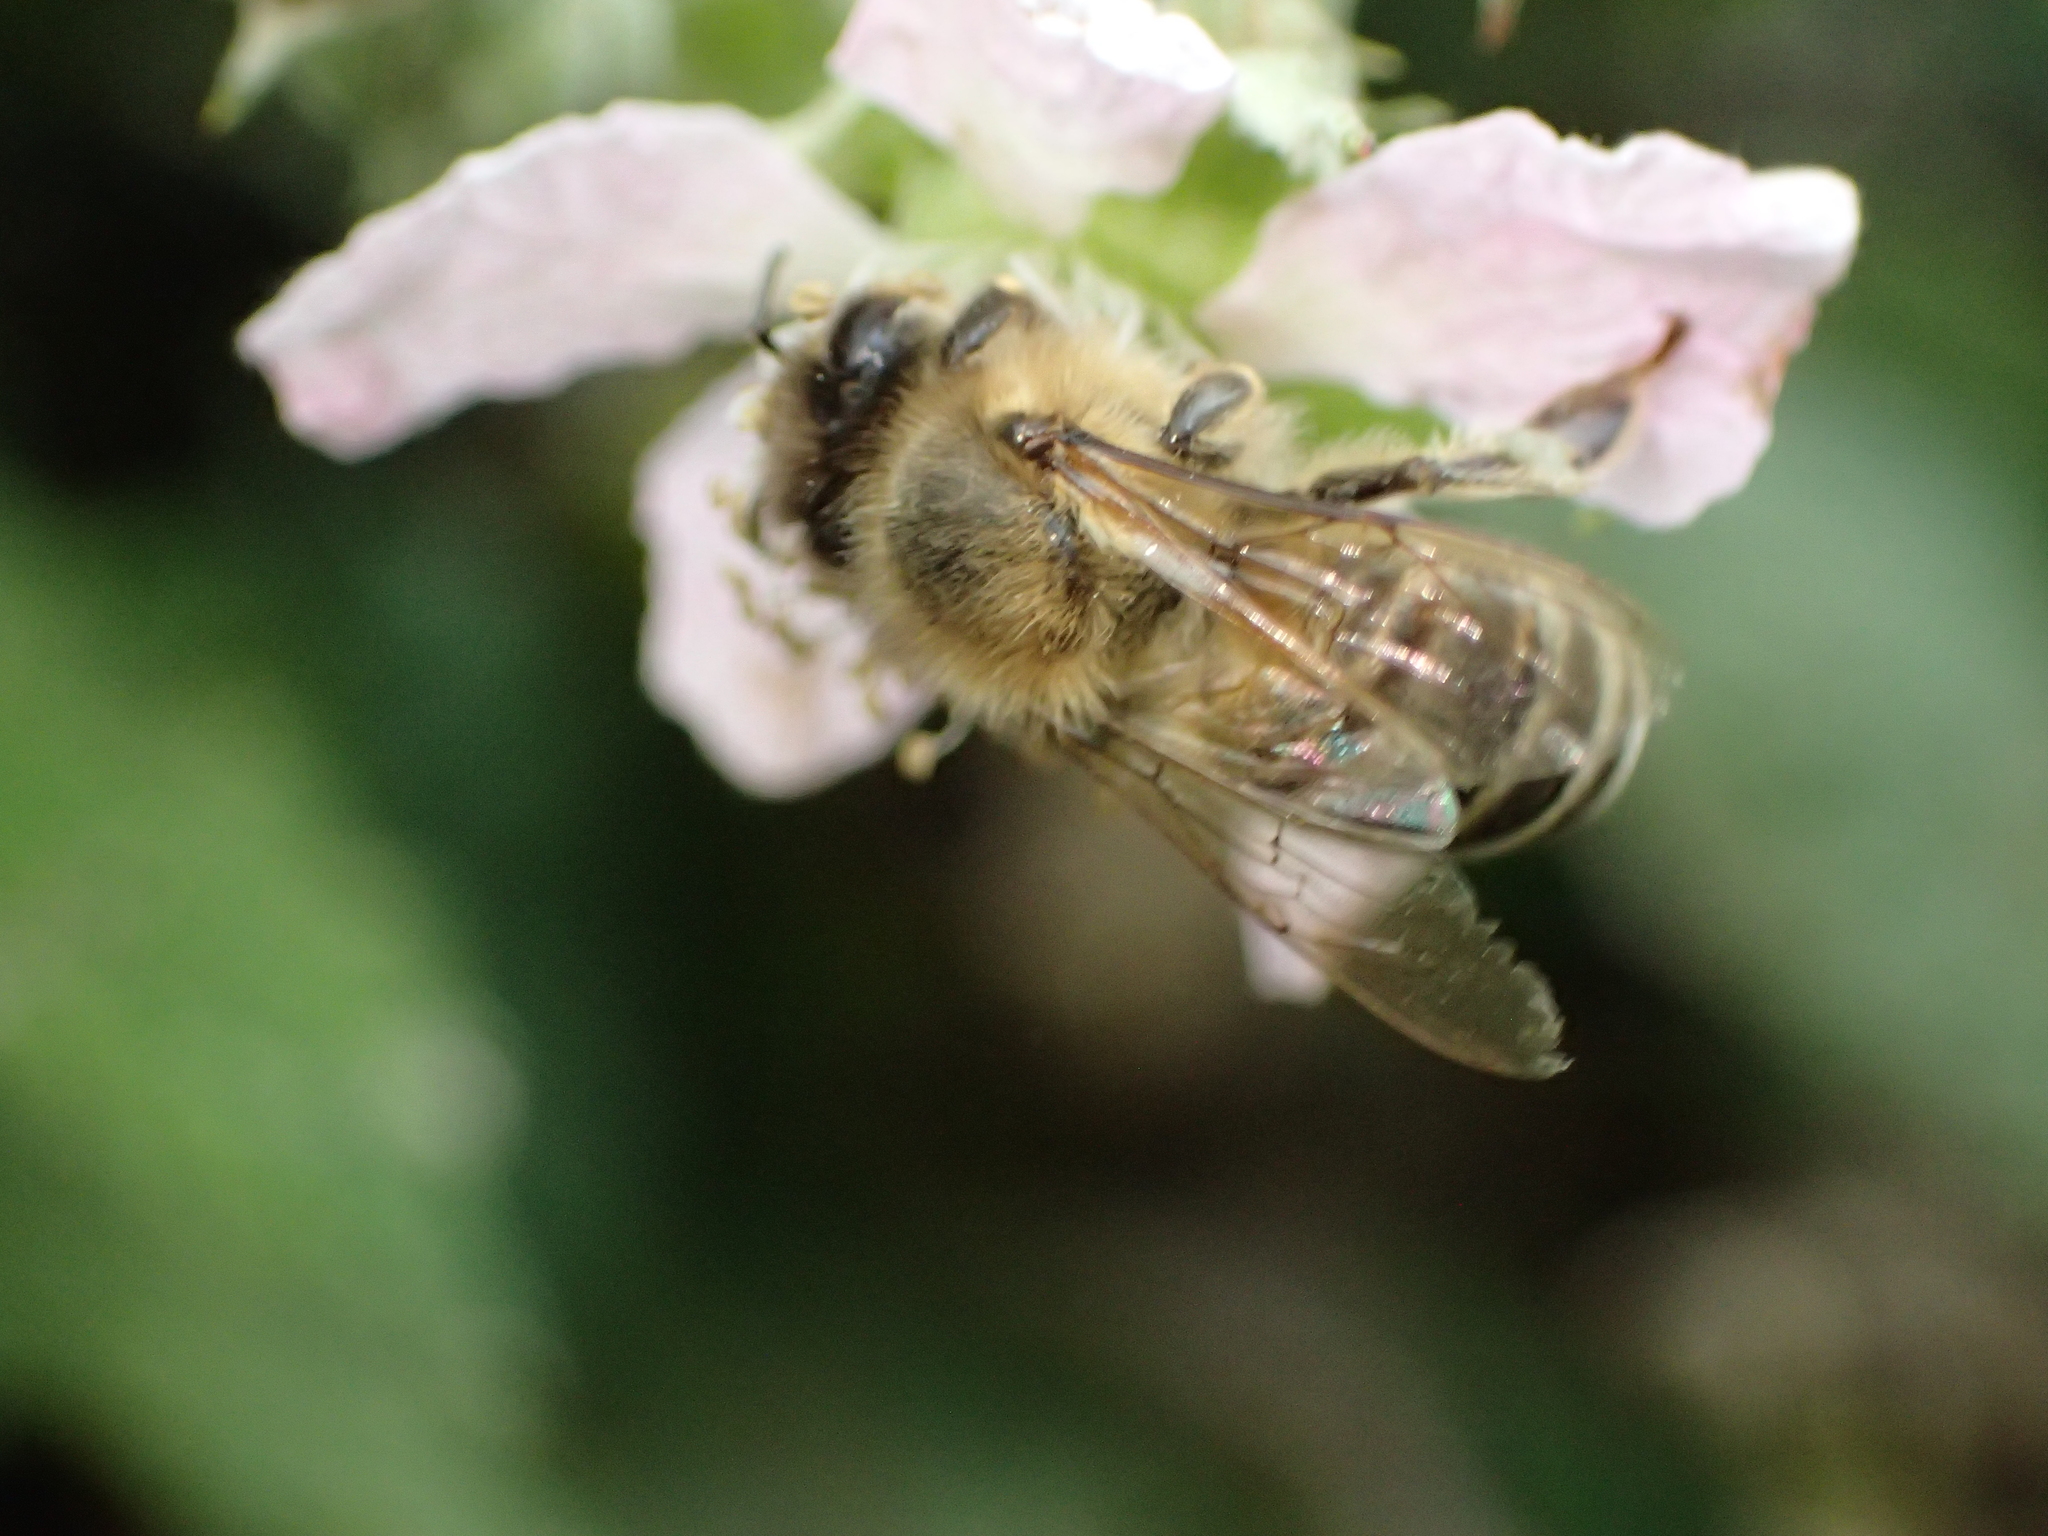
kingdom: Animalia
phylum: Arthropoda
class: Insecta
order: Hymenoptera
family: Apidae
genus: Apis
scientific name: Apis mellifera
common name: Honey bee
